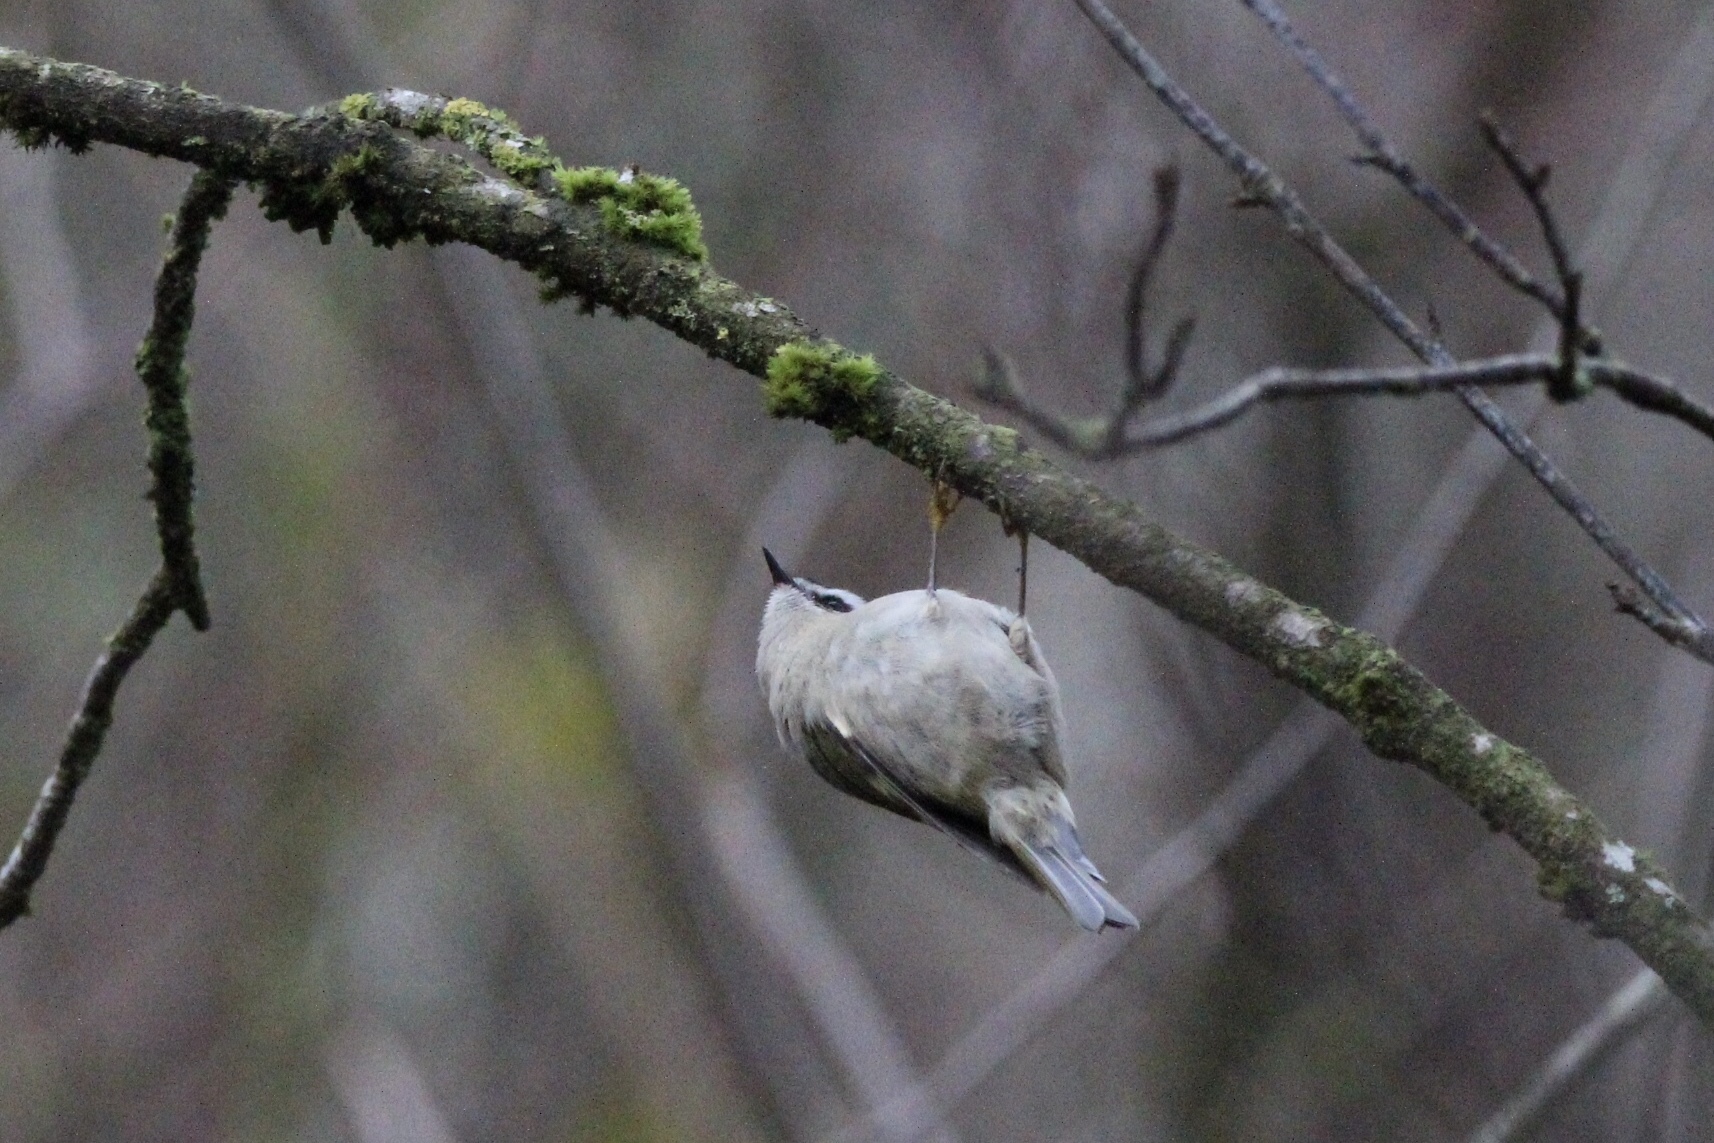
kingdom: Animalia
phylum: Chordata
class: Aves
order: Passeriformes
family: Regulidae
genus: Regulus
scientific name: Regulus satrapa
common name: Golden-crowned kinglet
